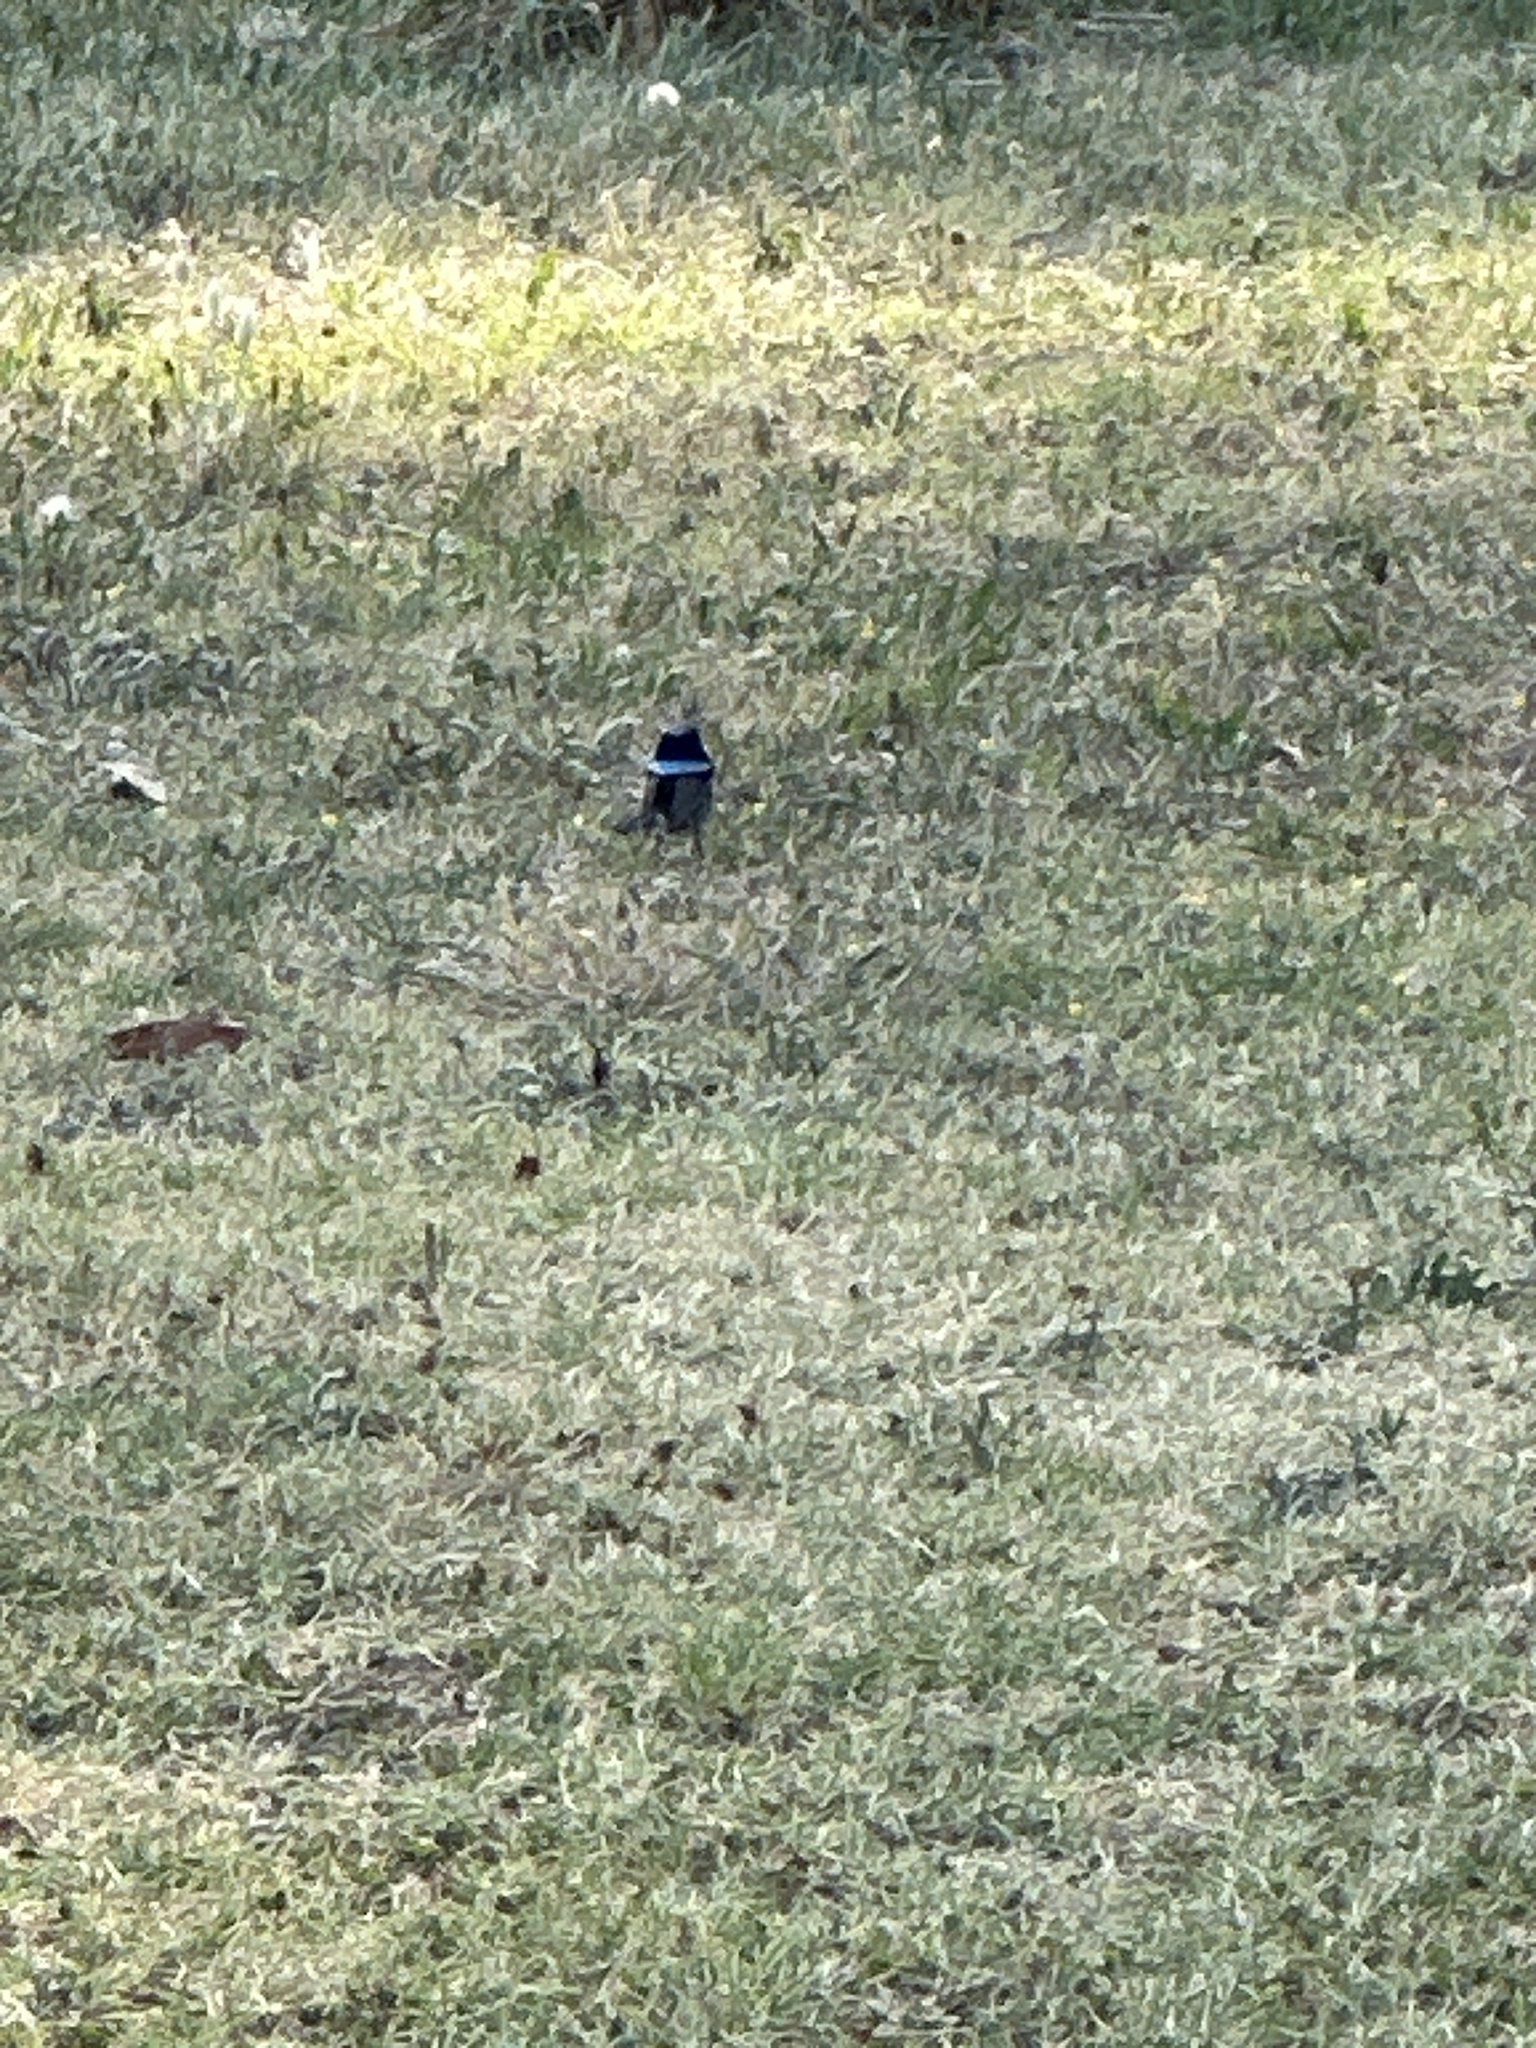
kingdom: Animalia
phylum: Chordata
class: Aves
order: Passeriformes
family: Maluridae
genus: Malurus
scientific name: Malurus cyaneus
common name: Superb fairywren
